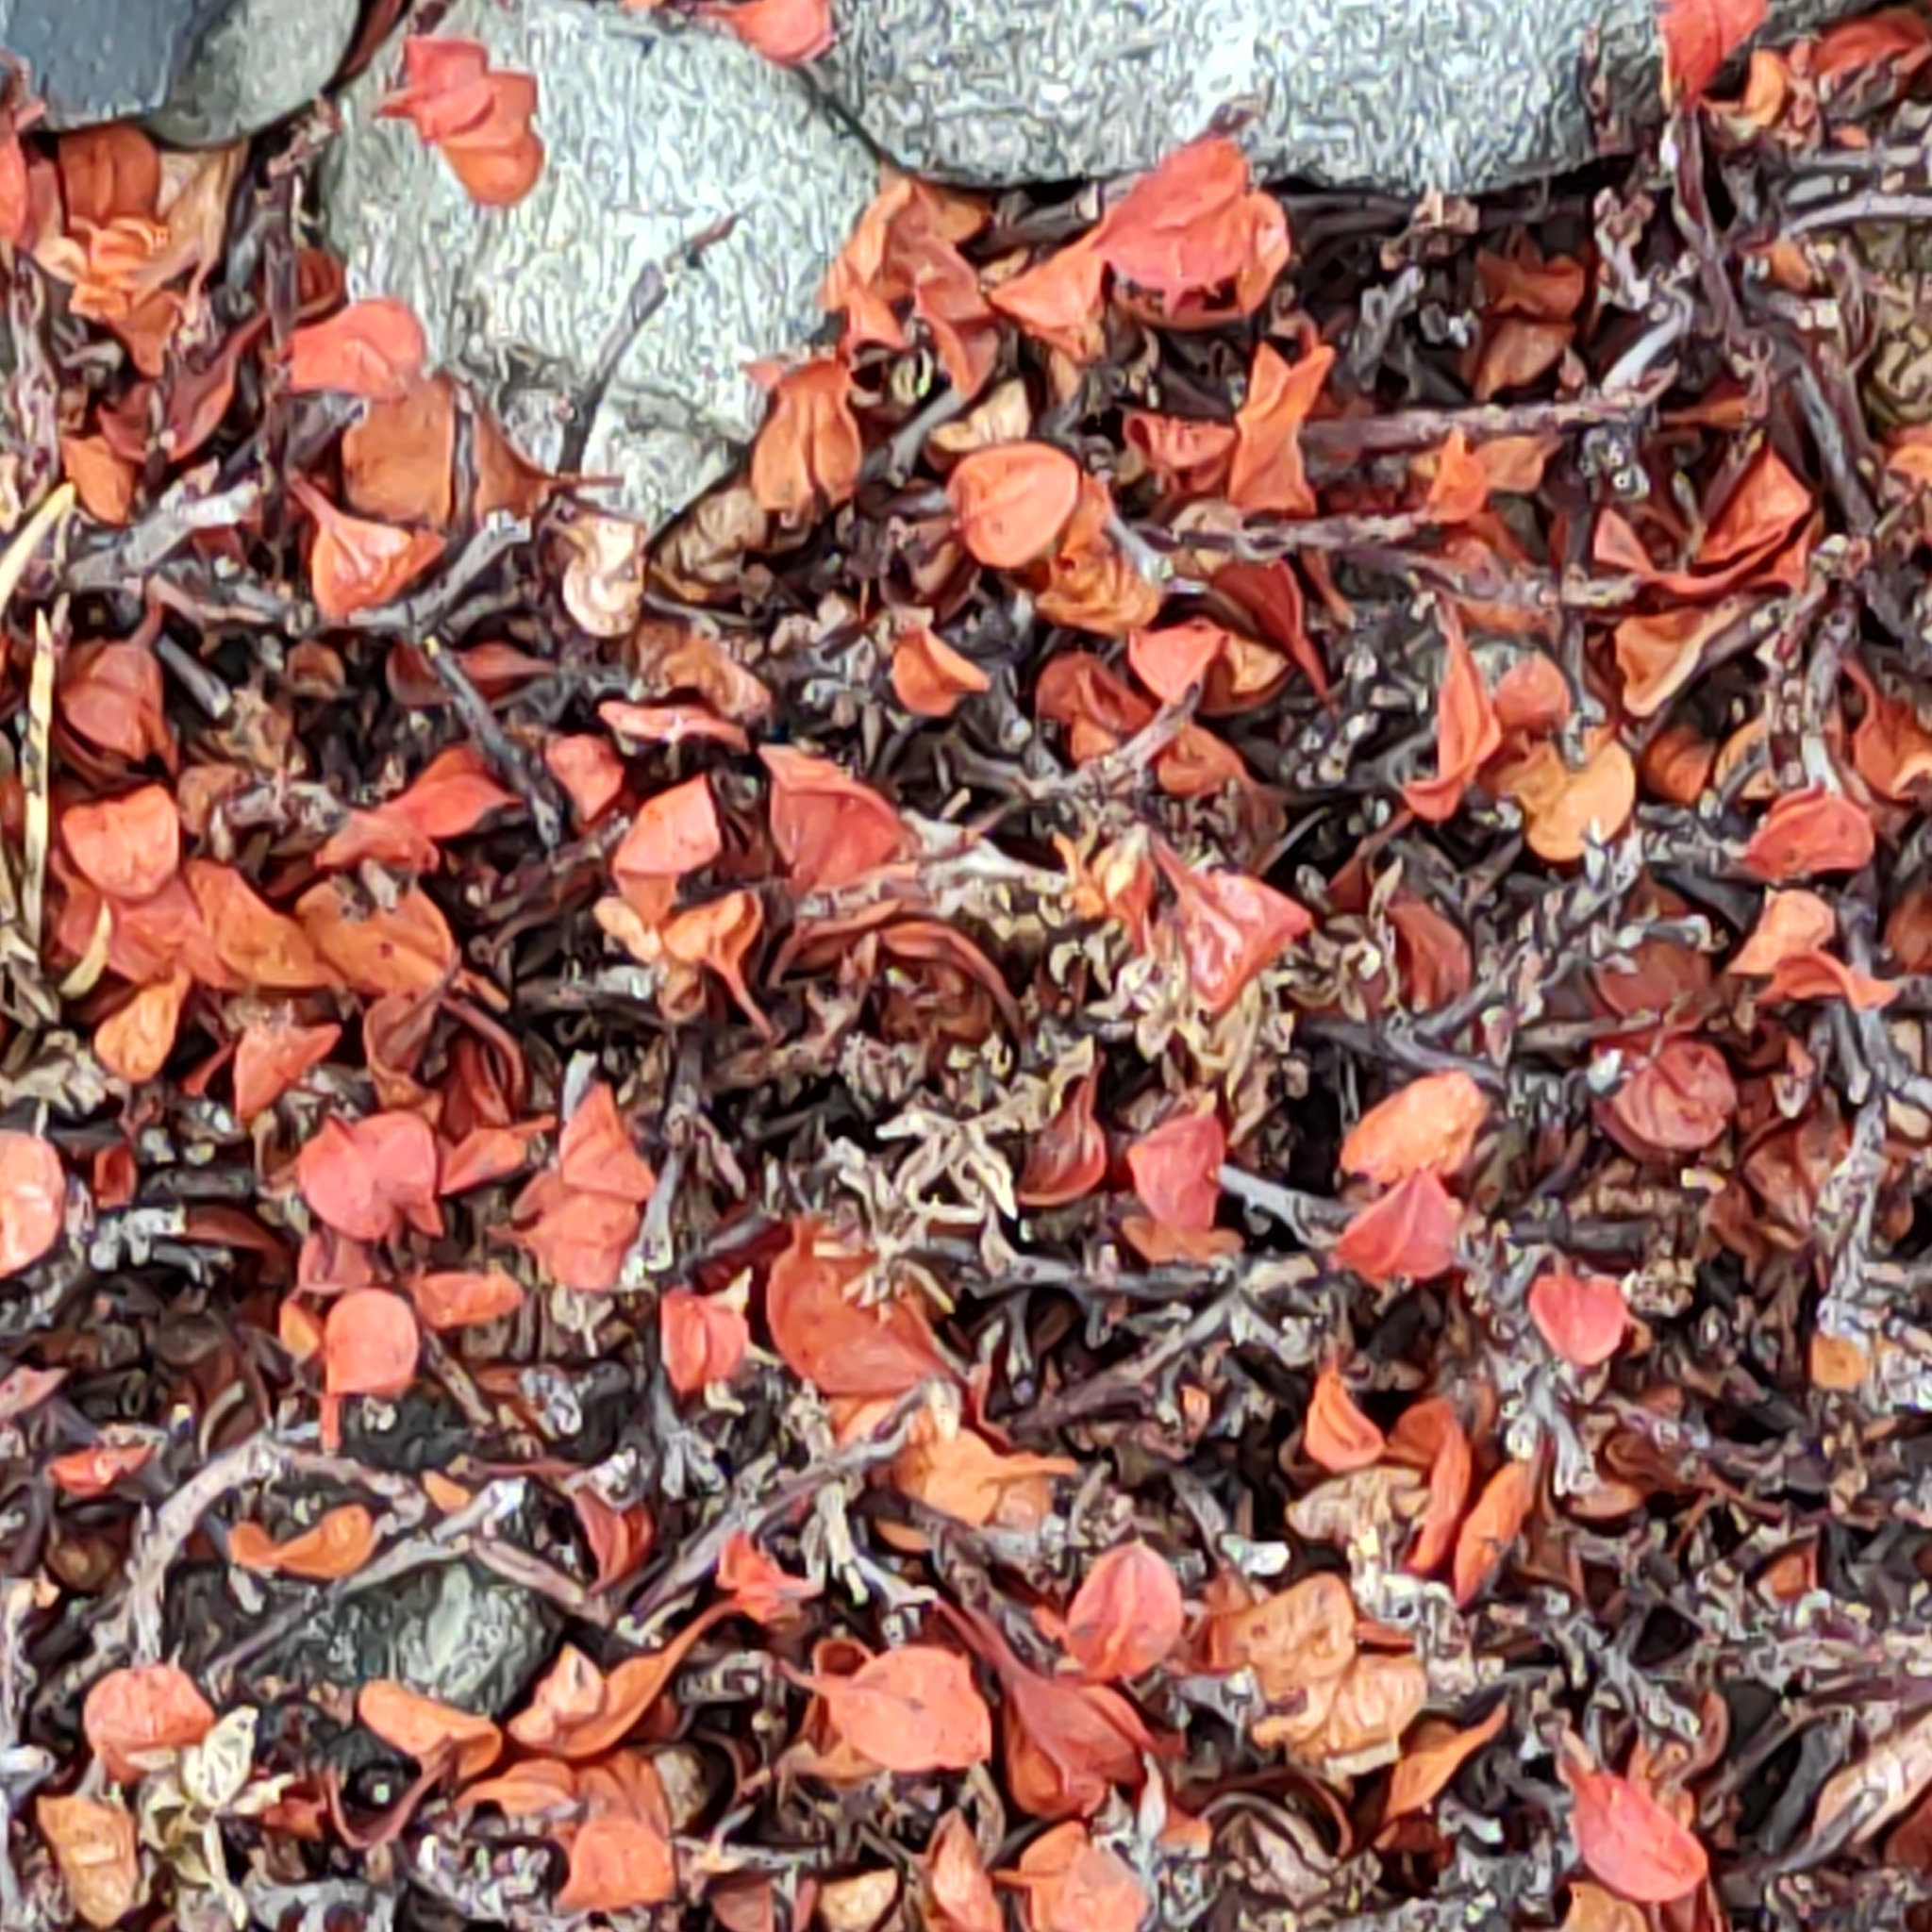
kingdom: Plantae
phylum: Tracheophyta
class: Magnoliopsida
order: Caryophyllales
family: Polygonaceae
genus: Muehlenbeckia
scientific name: Muehlenbeckia axillaris
